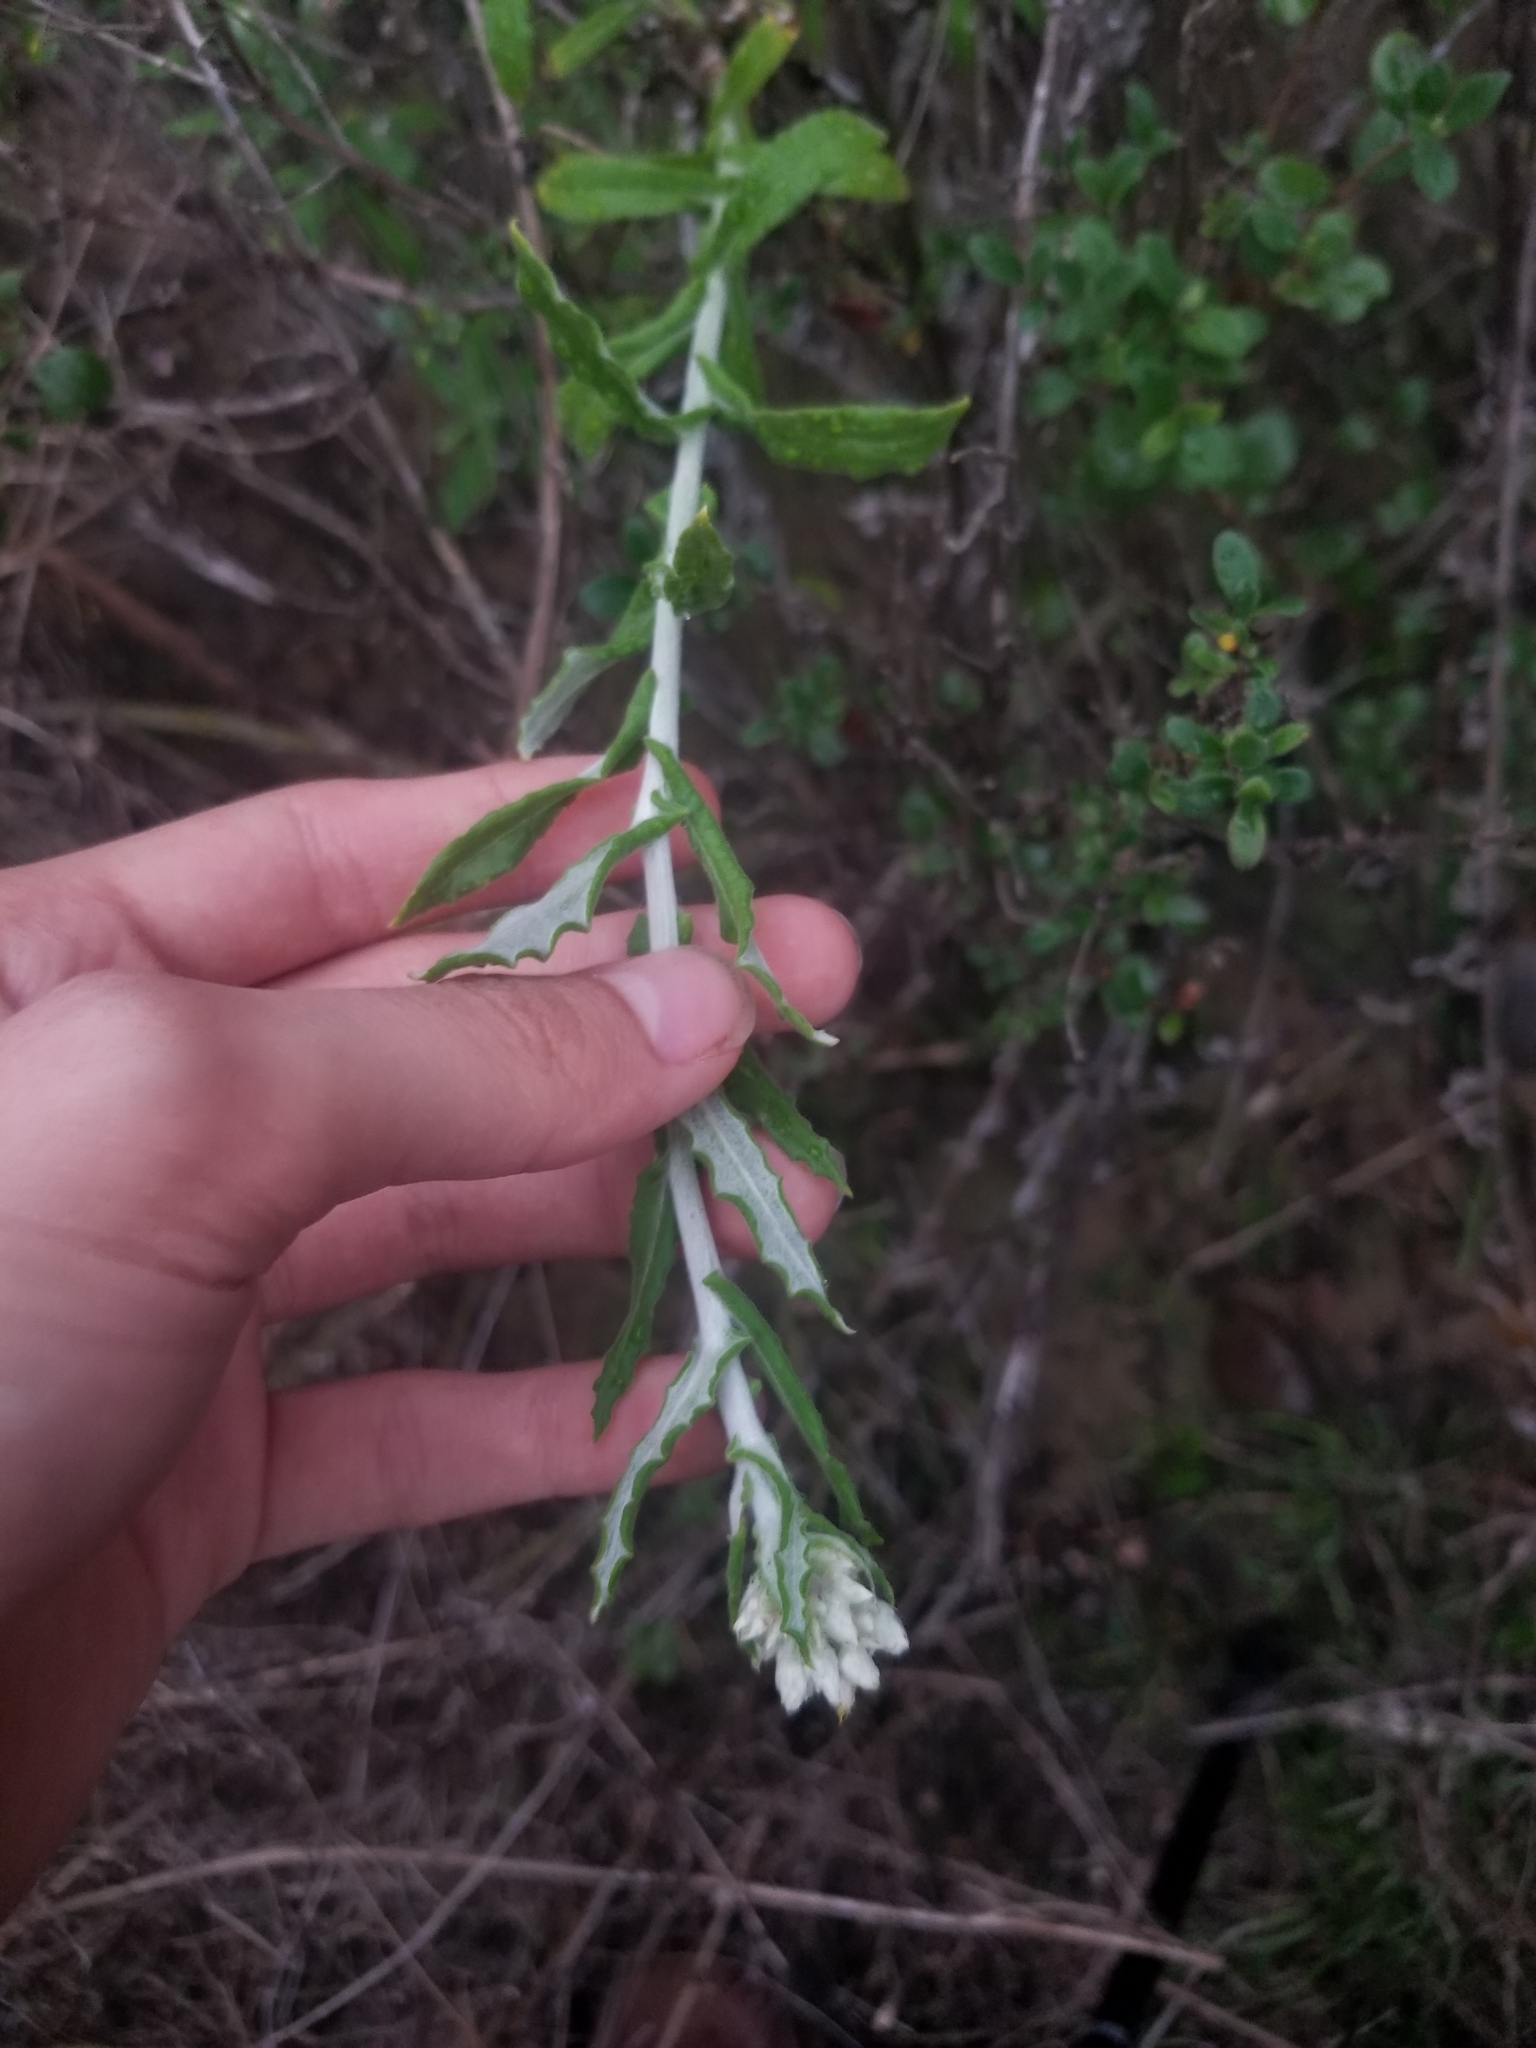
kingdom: Plantae
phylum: Tracheophyta
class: Magnoliopsida
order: Asterales
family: Asteraceae
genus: Pseudognaphalium
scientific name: Pseudognaphalium biolettii
